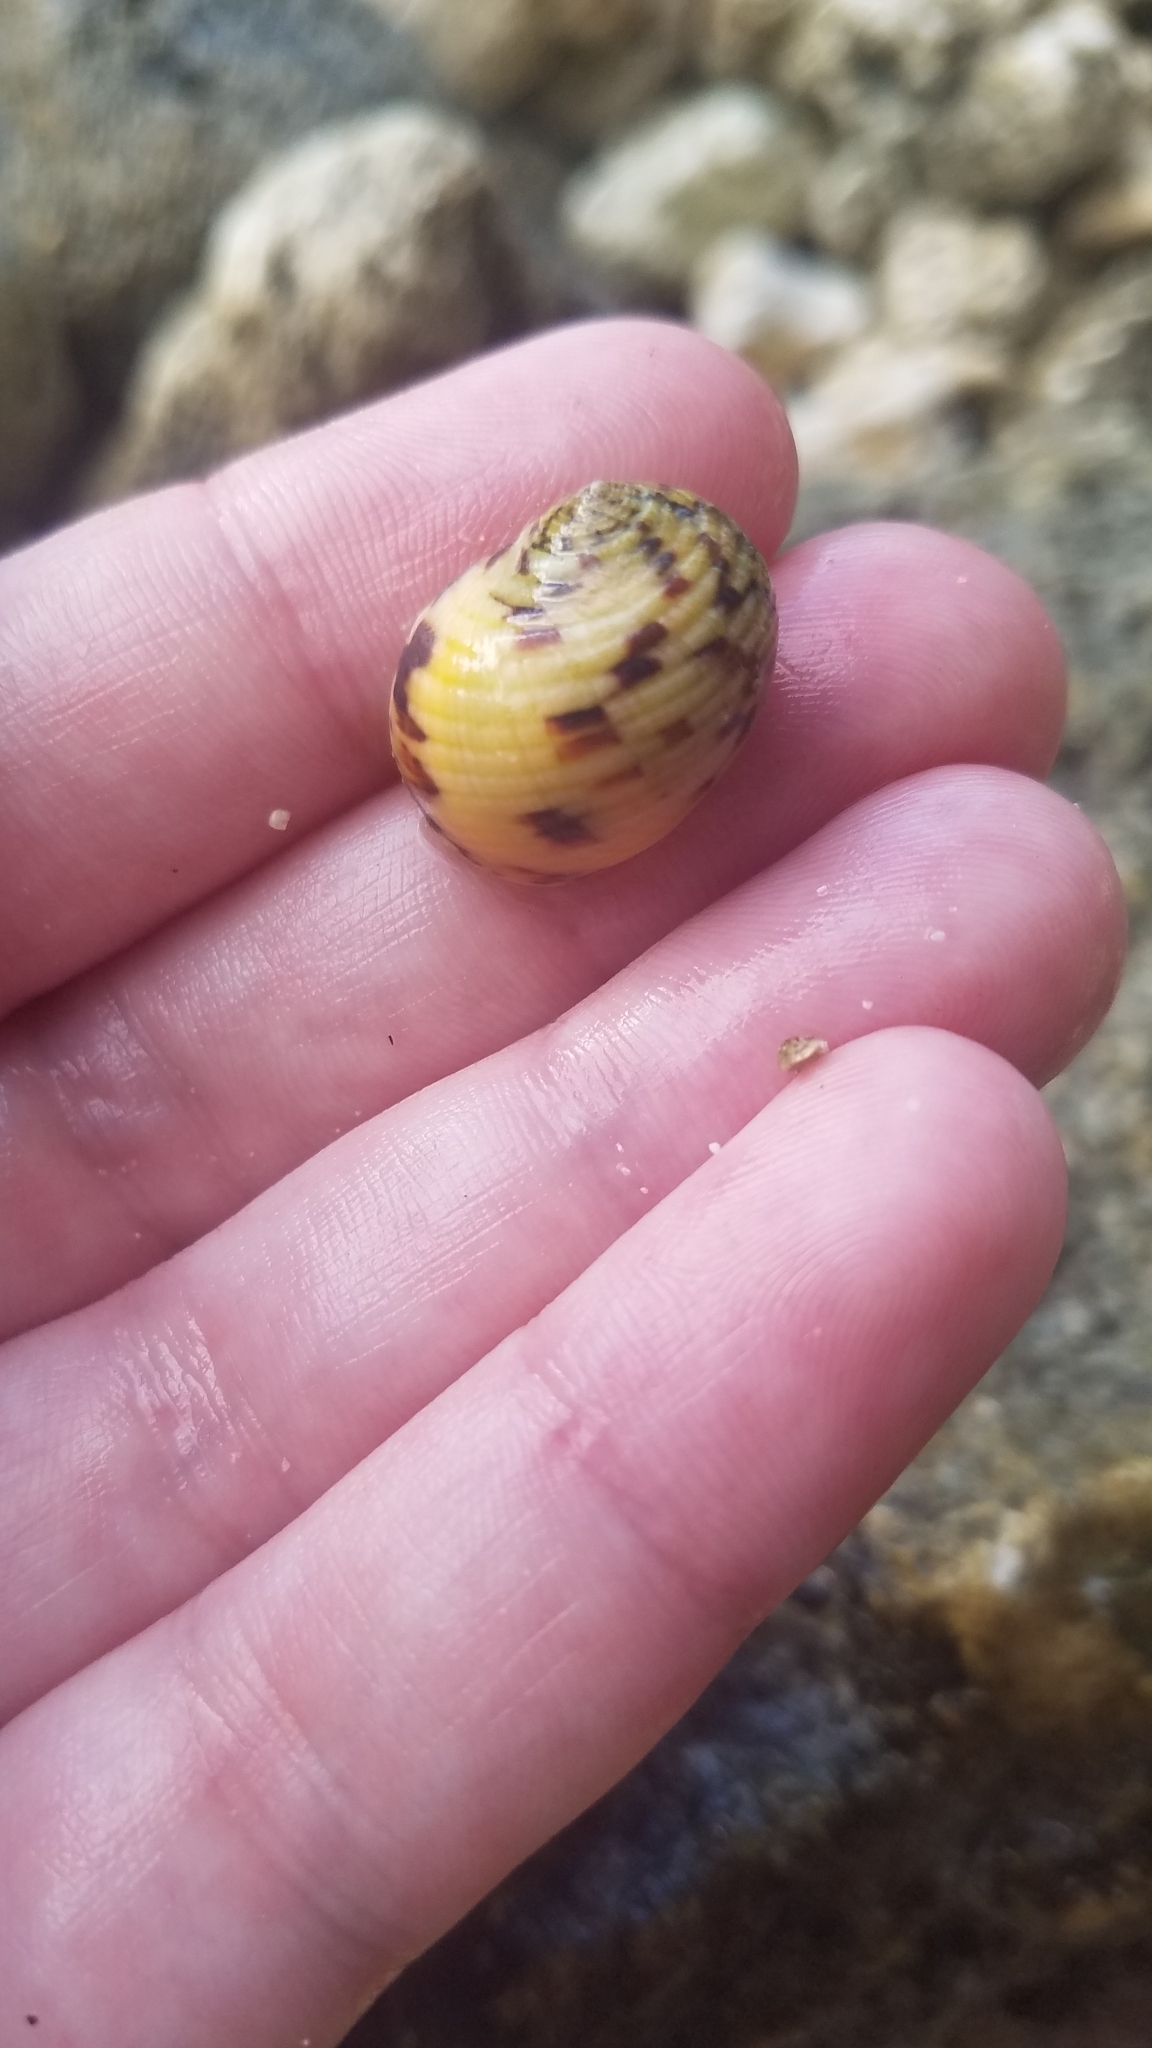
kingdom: Animalia
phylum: Mollusca
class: Gastropoda
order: Cycloneritida
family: Neritidae
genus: Nerita
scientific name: Nerita peloronta
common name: Bleeding tooth
